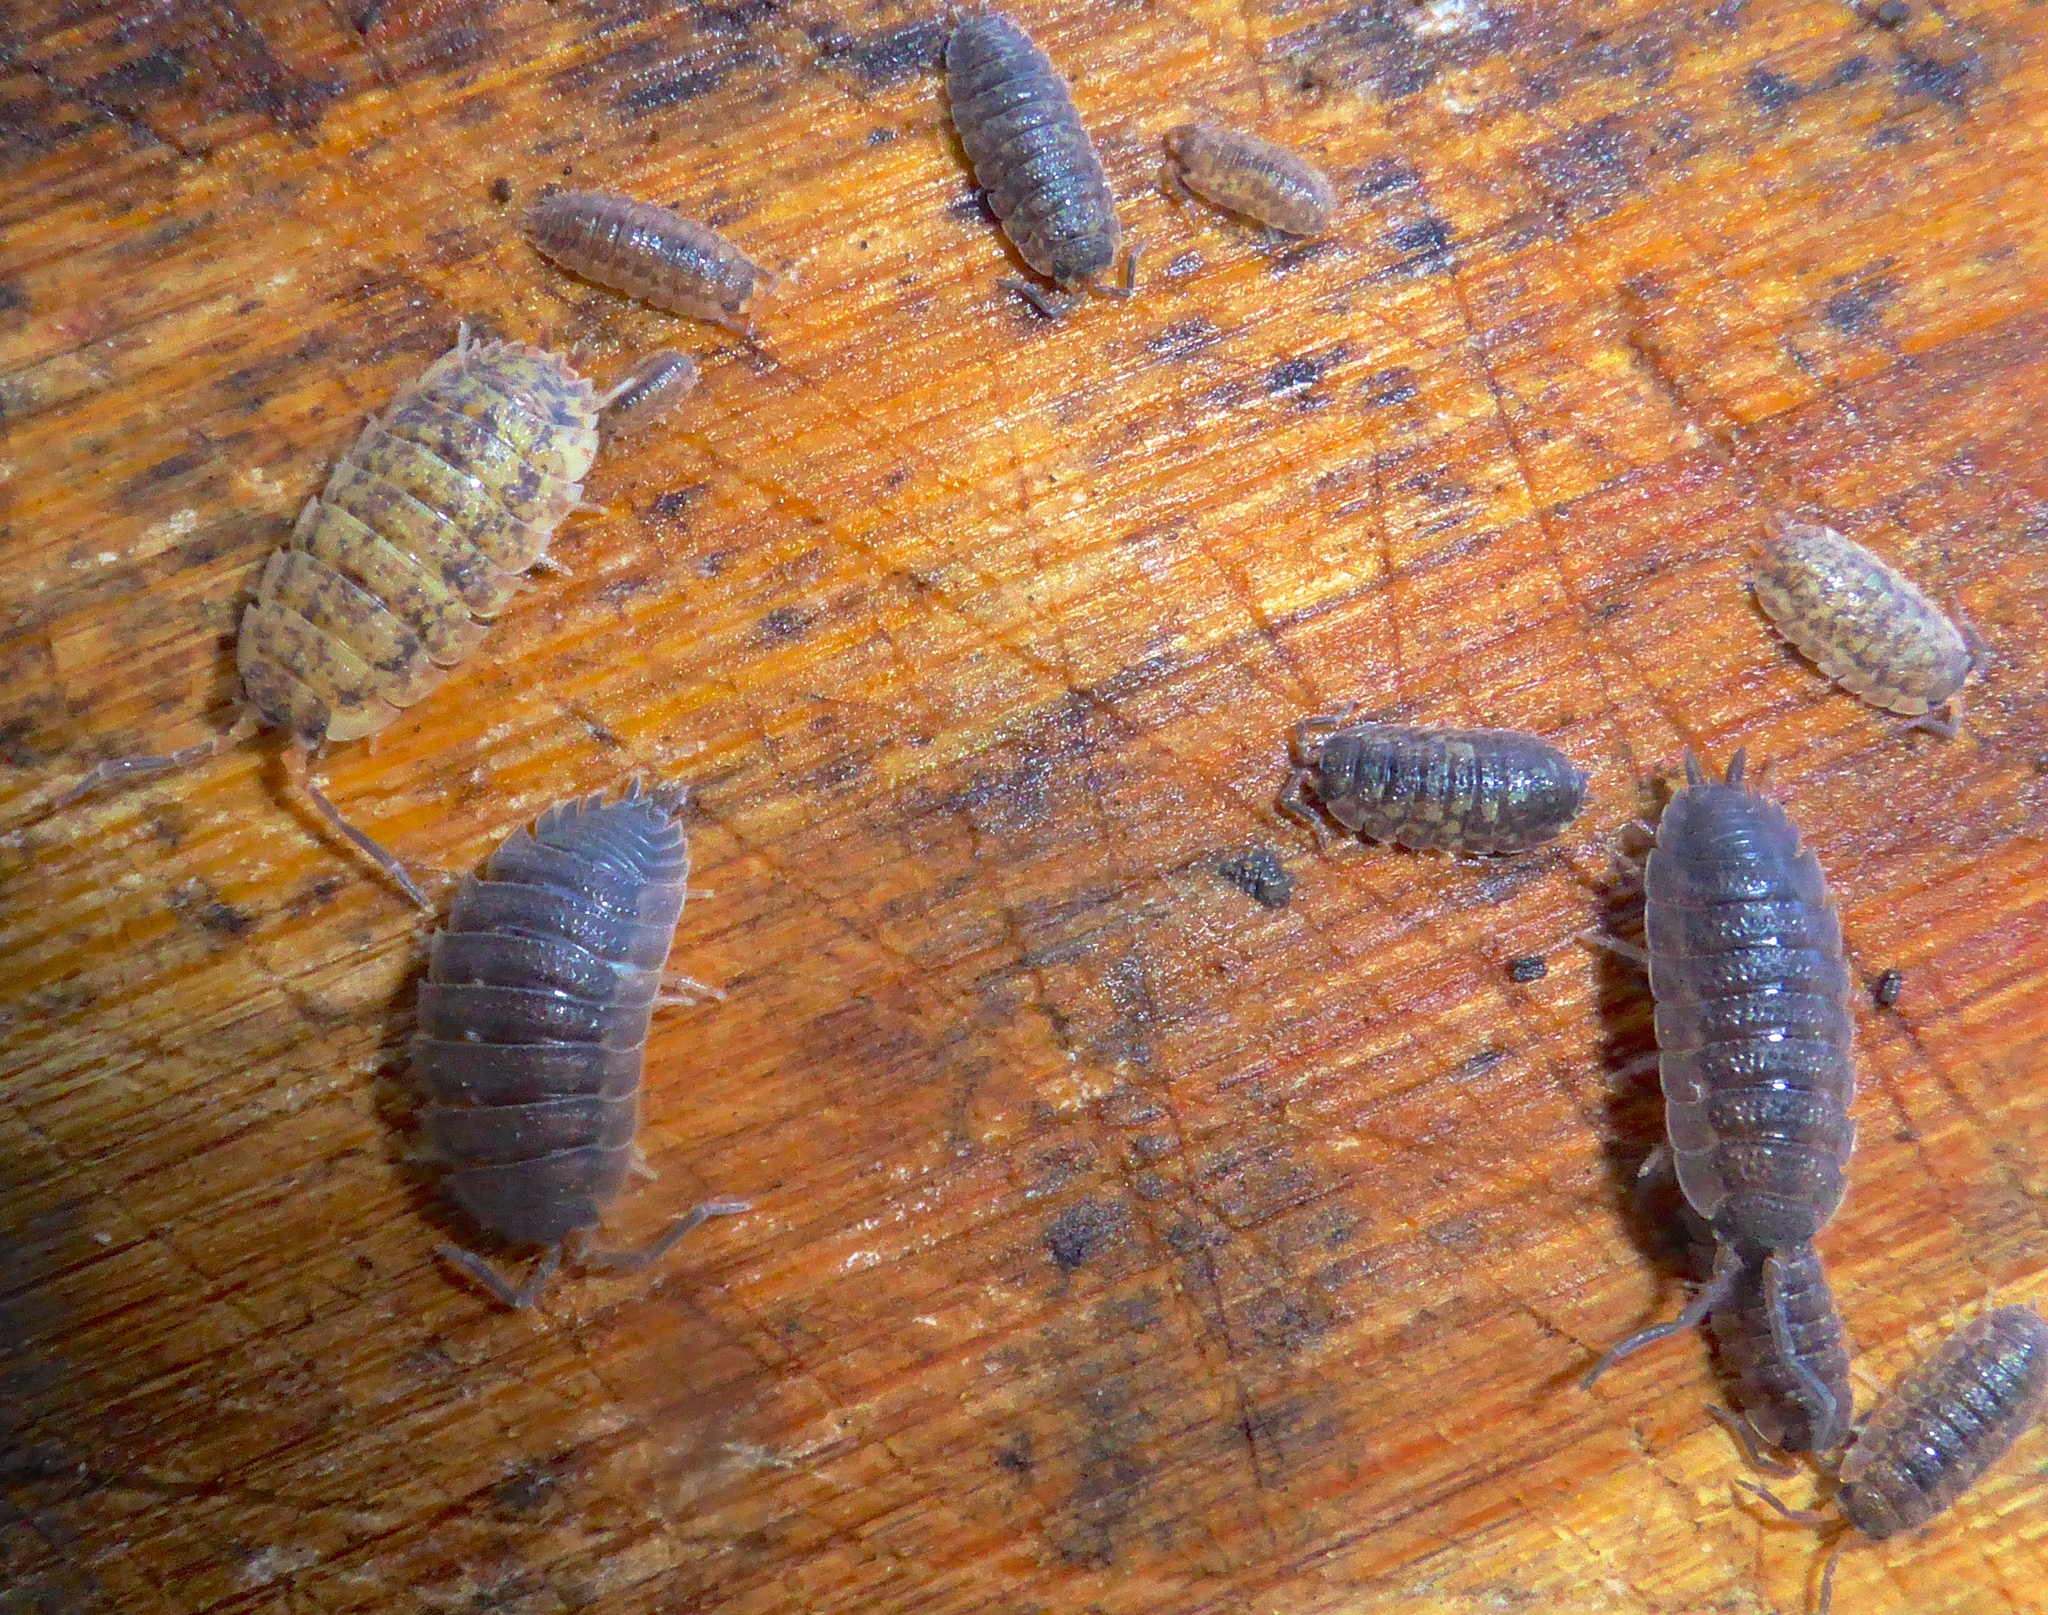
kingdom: Animalia
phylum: Arthropoda
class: Malacostraca
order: Isopoda
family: Porcellionidae
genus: Porcellio
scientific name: Porcellio scaber
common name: Common rough woodlouse
